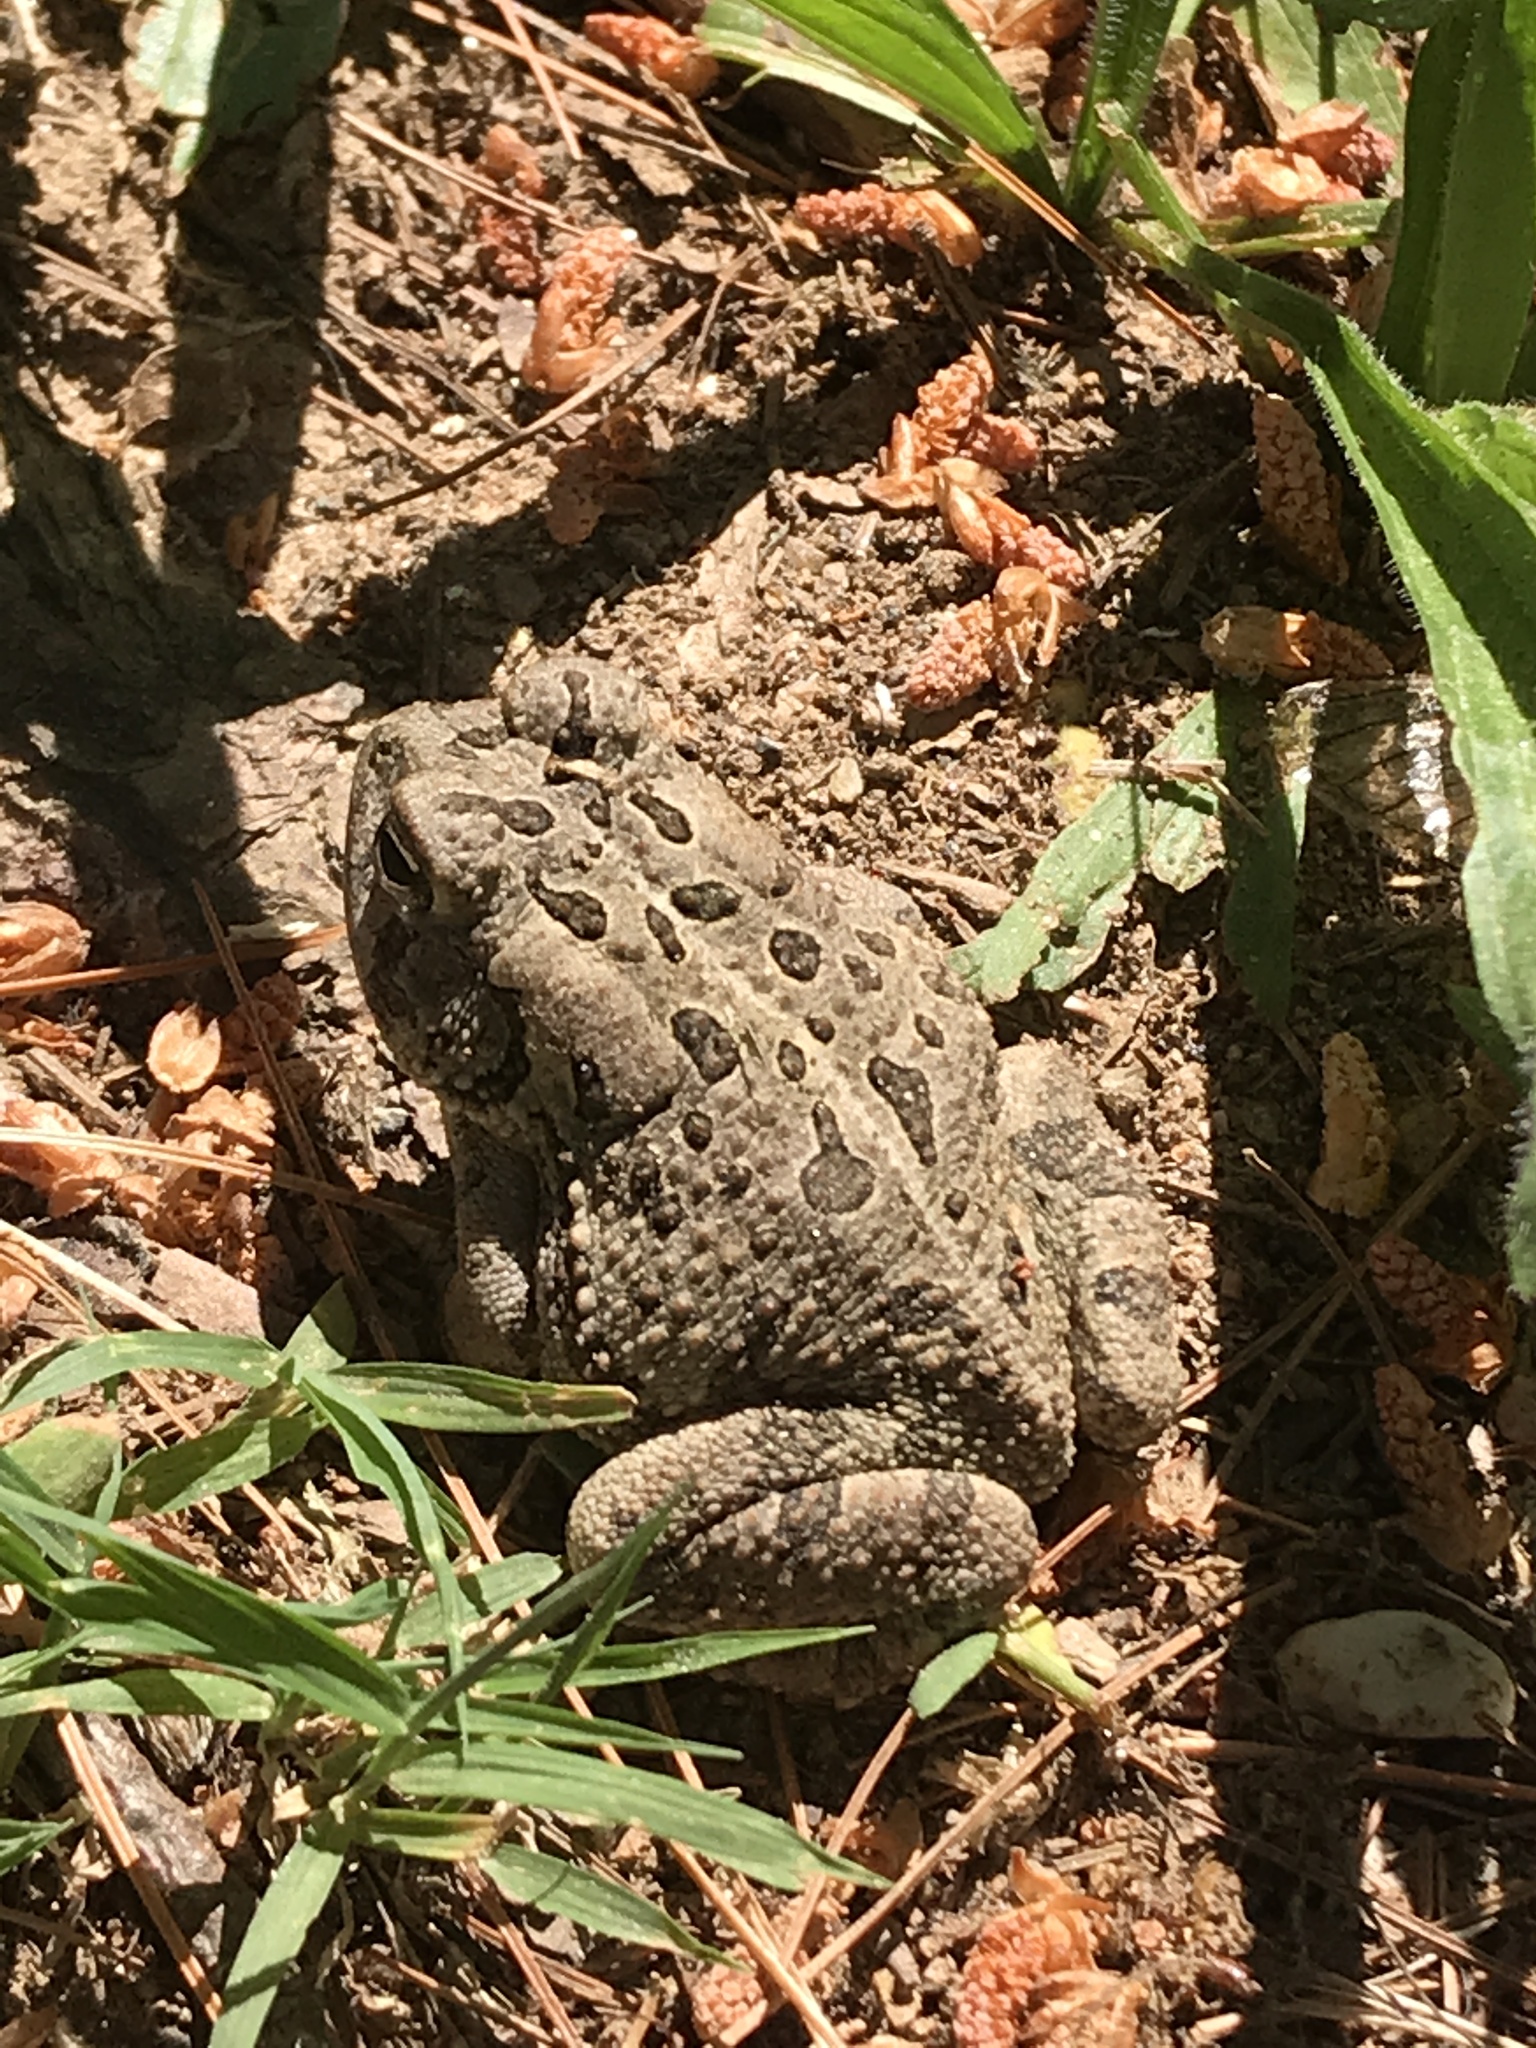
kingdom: Animalia
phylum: Chordata
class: Amphibia
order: Anura
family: Bufonidae
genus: Anaxyrus
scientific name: Anaxyrus fowleri
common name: Fowler's toad
